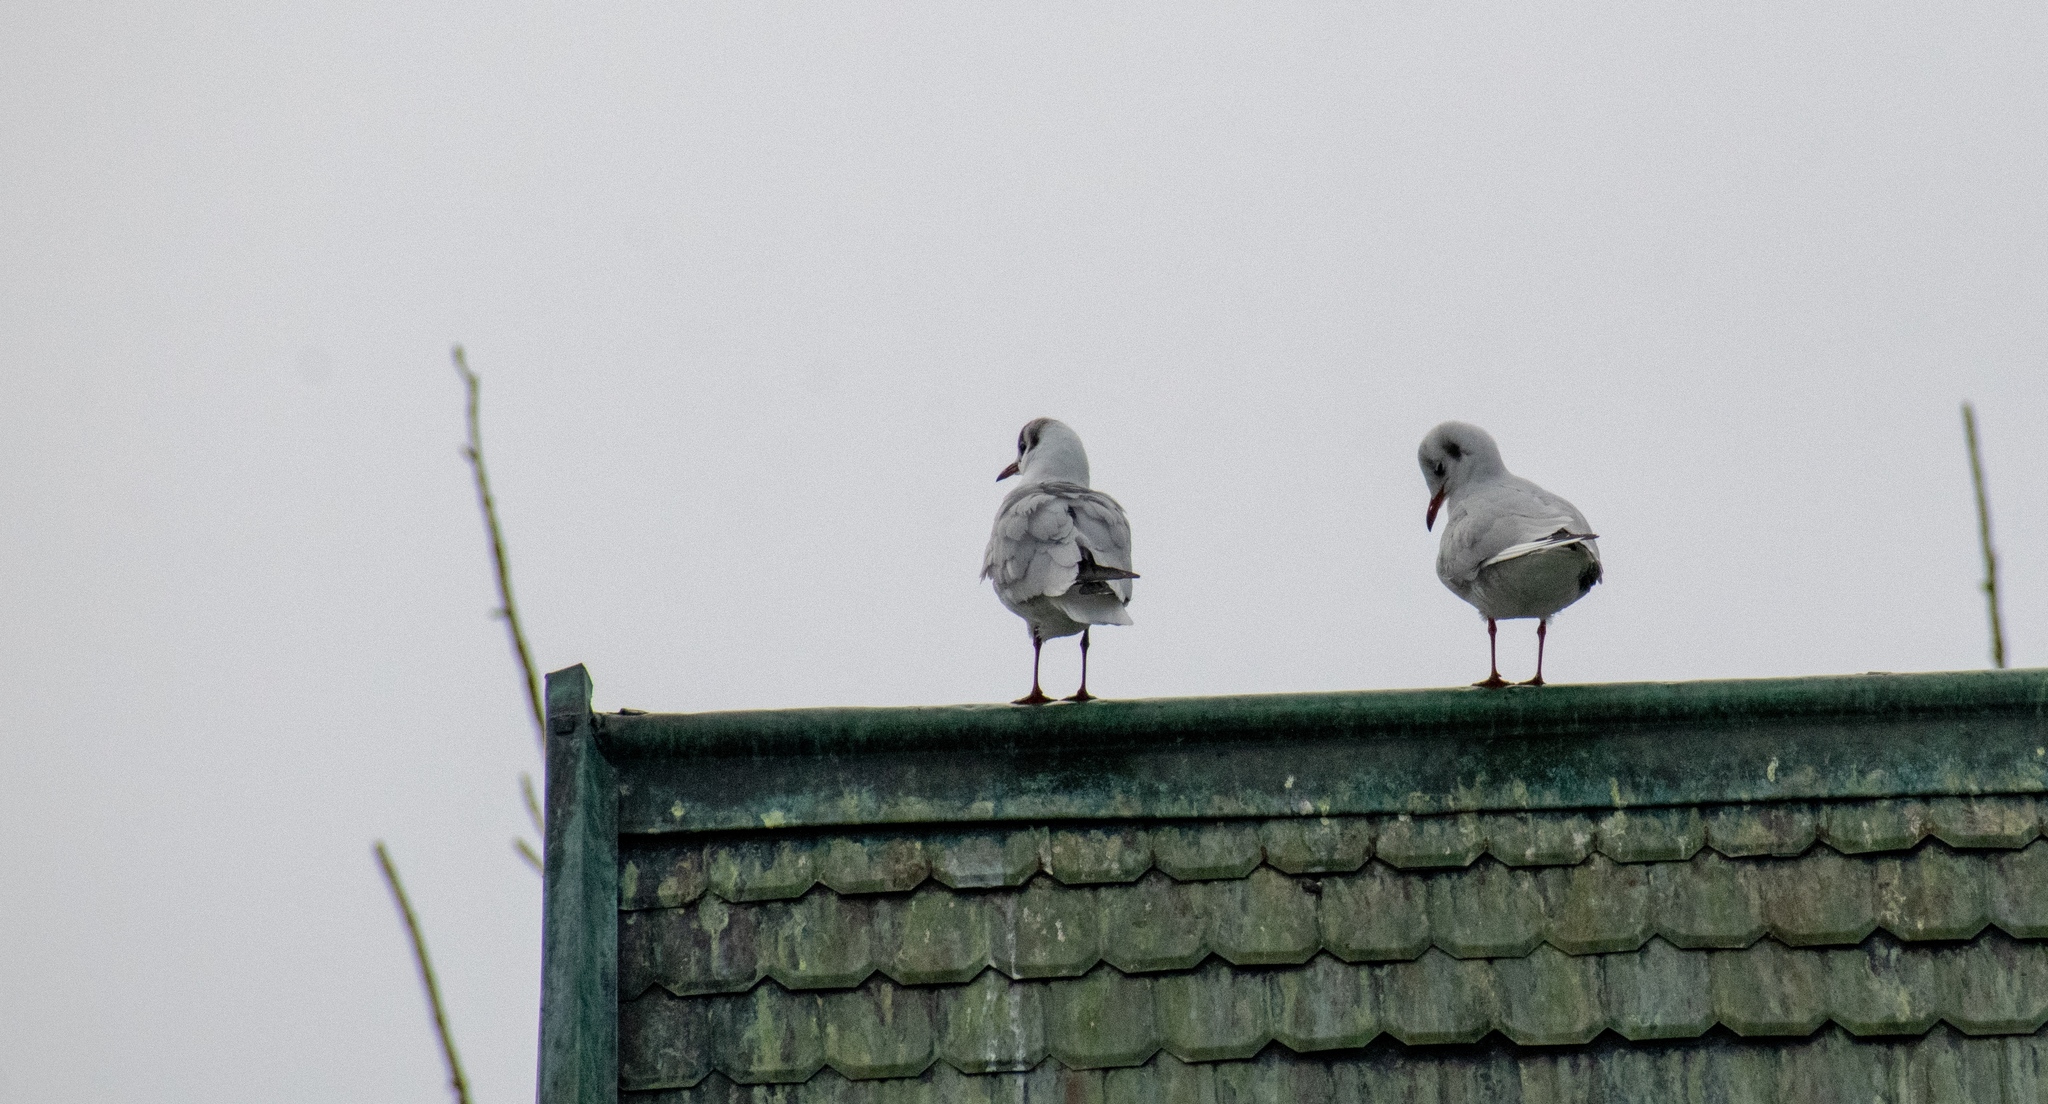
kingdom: Animalia
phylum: Chordata
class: Aves
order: Charadriiformes
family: Laridae
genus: Chroicocephalus
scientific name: Chroicocephalus ridibundus
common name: Black-headed gull
